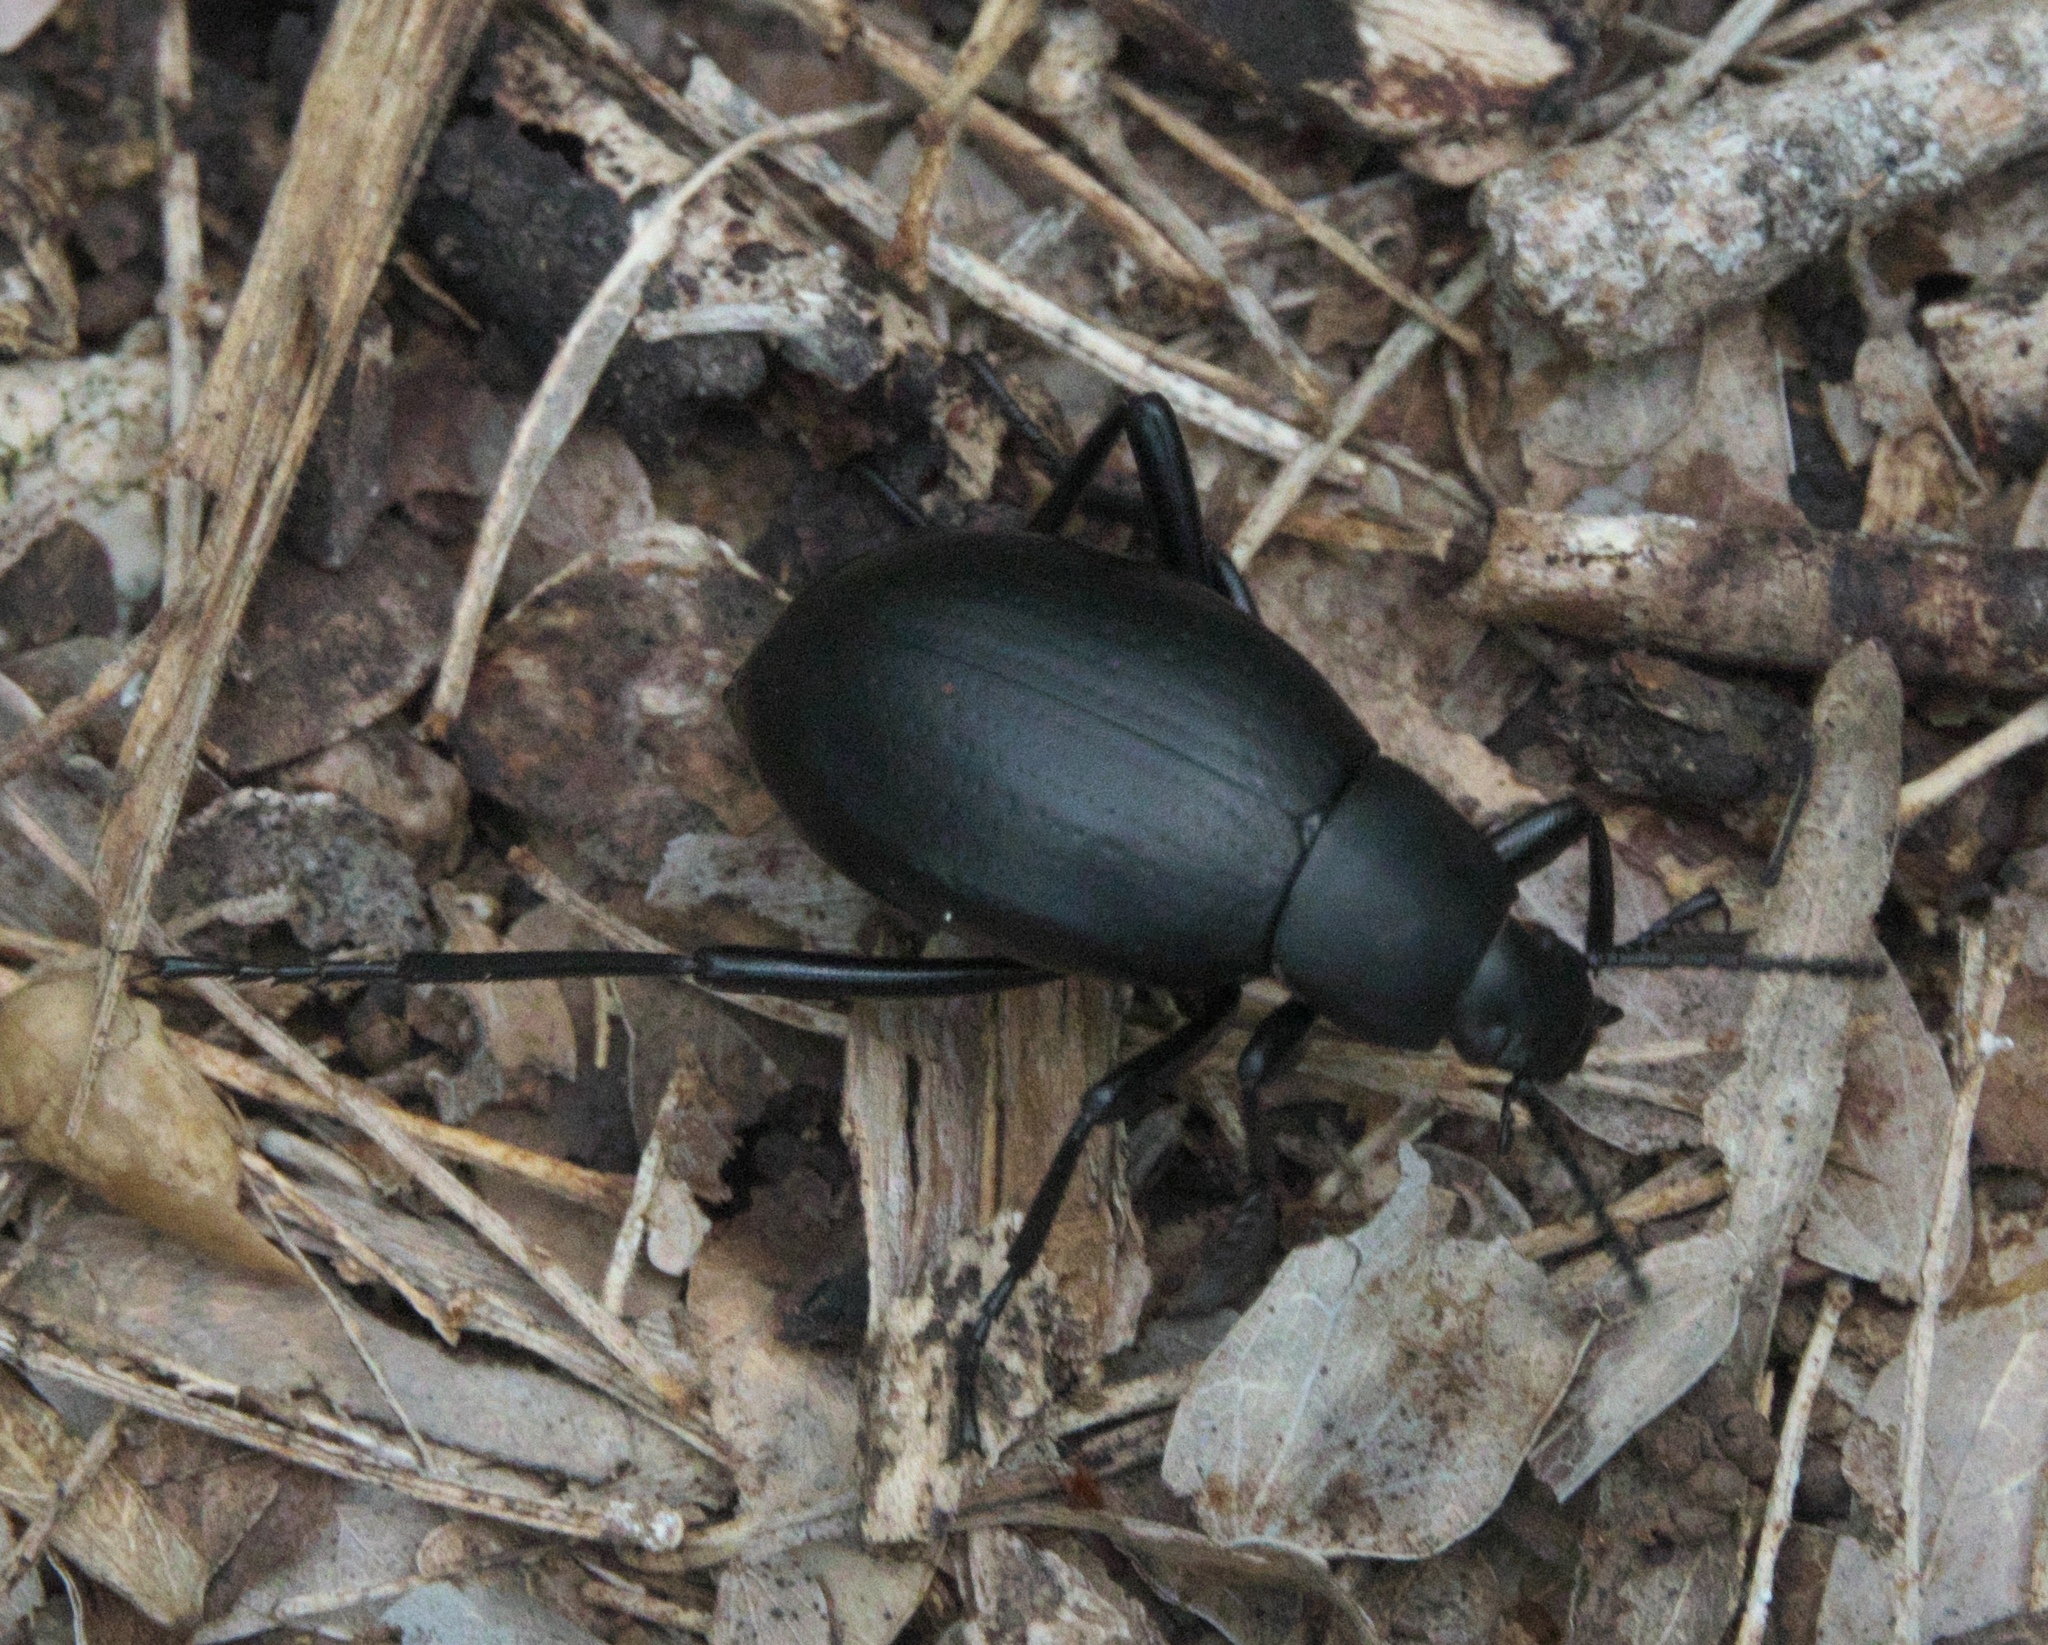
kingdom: Animalia
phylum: Arthropoda
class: Insecta
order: Coleoptera
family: Tenebrionidae
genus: Eleodes
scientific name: Eleodes goryi
